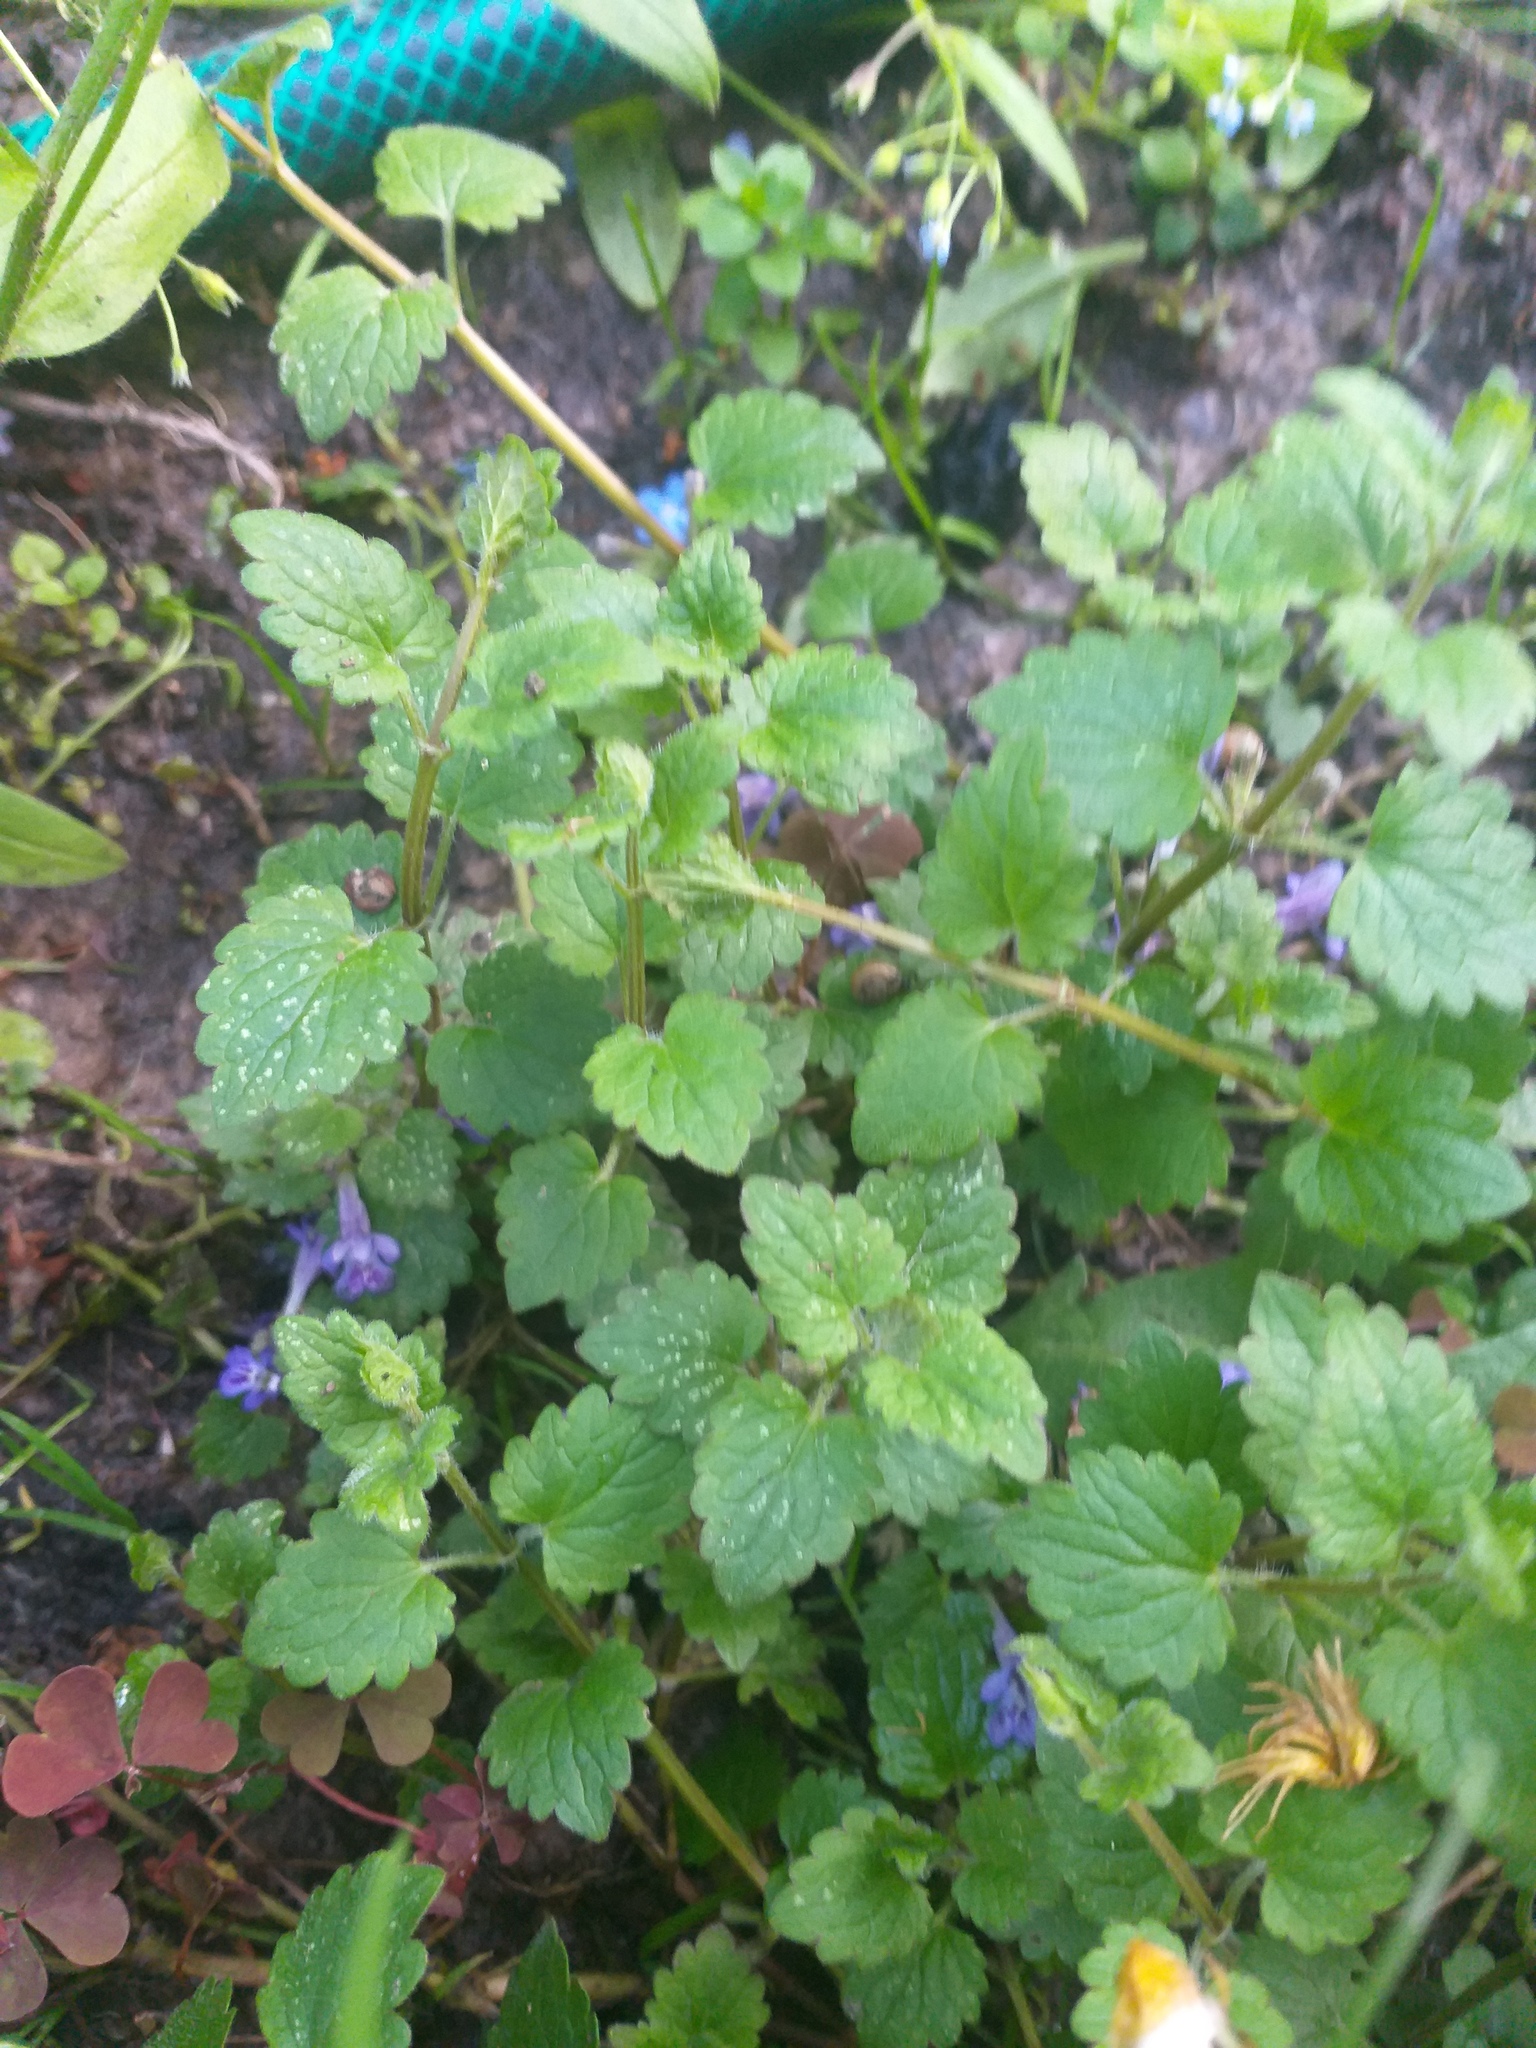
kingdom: Plantae
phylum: Tracheophyta
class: Magnoliopsida
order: Lamiales
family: Lamiaceae
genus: Glechoma
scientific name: Glechoma hederacea
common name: Ground ivy
